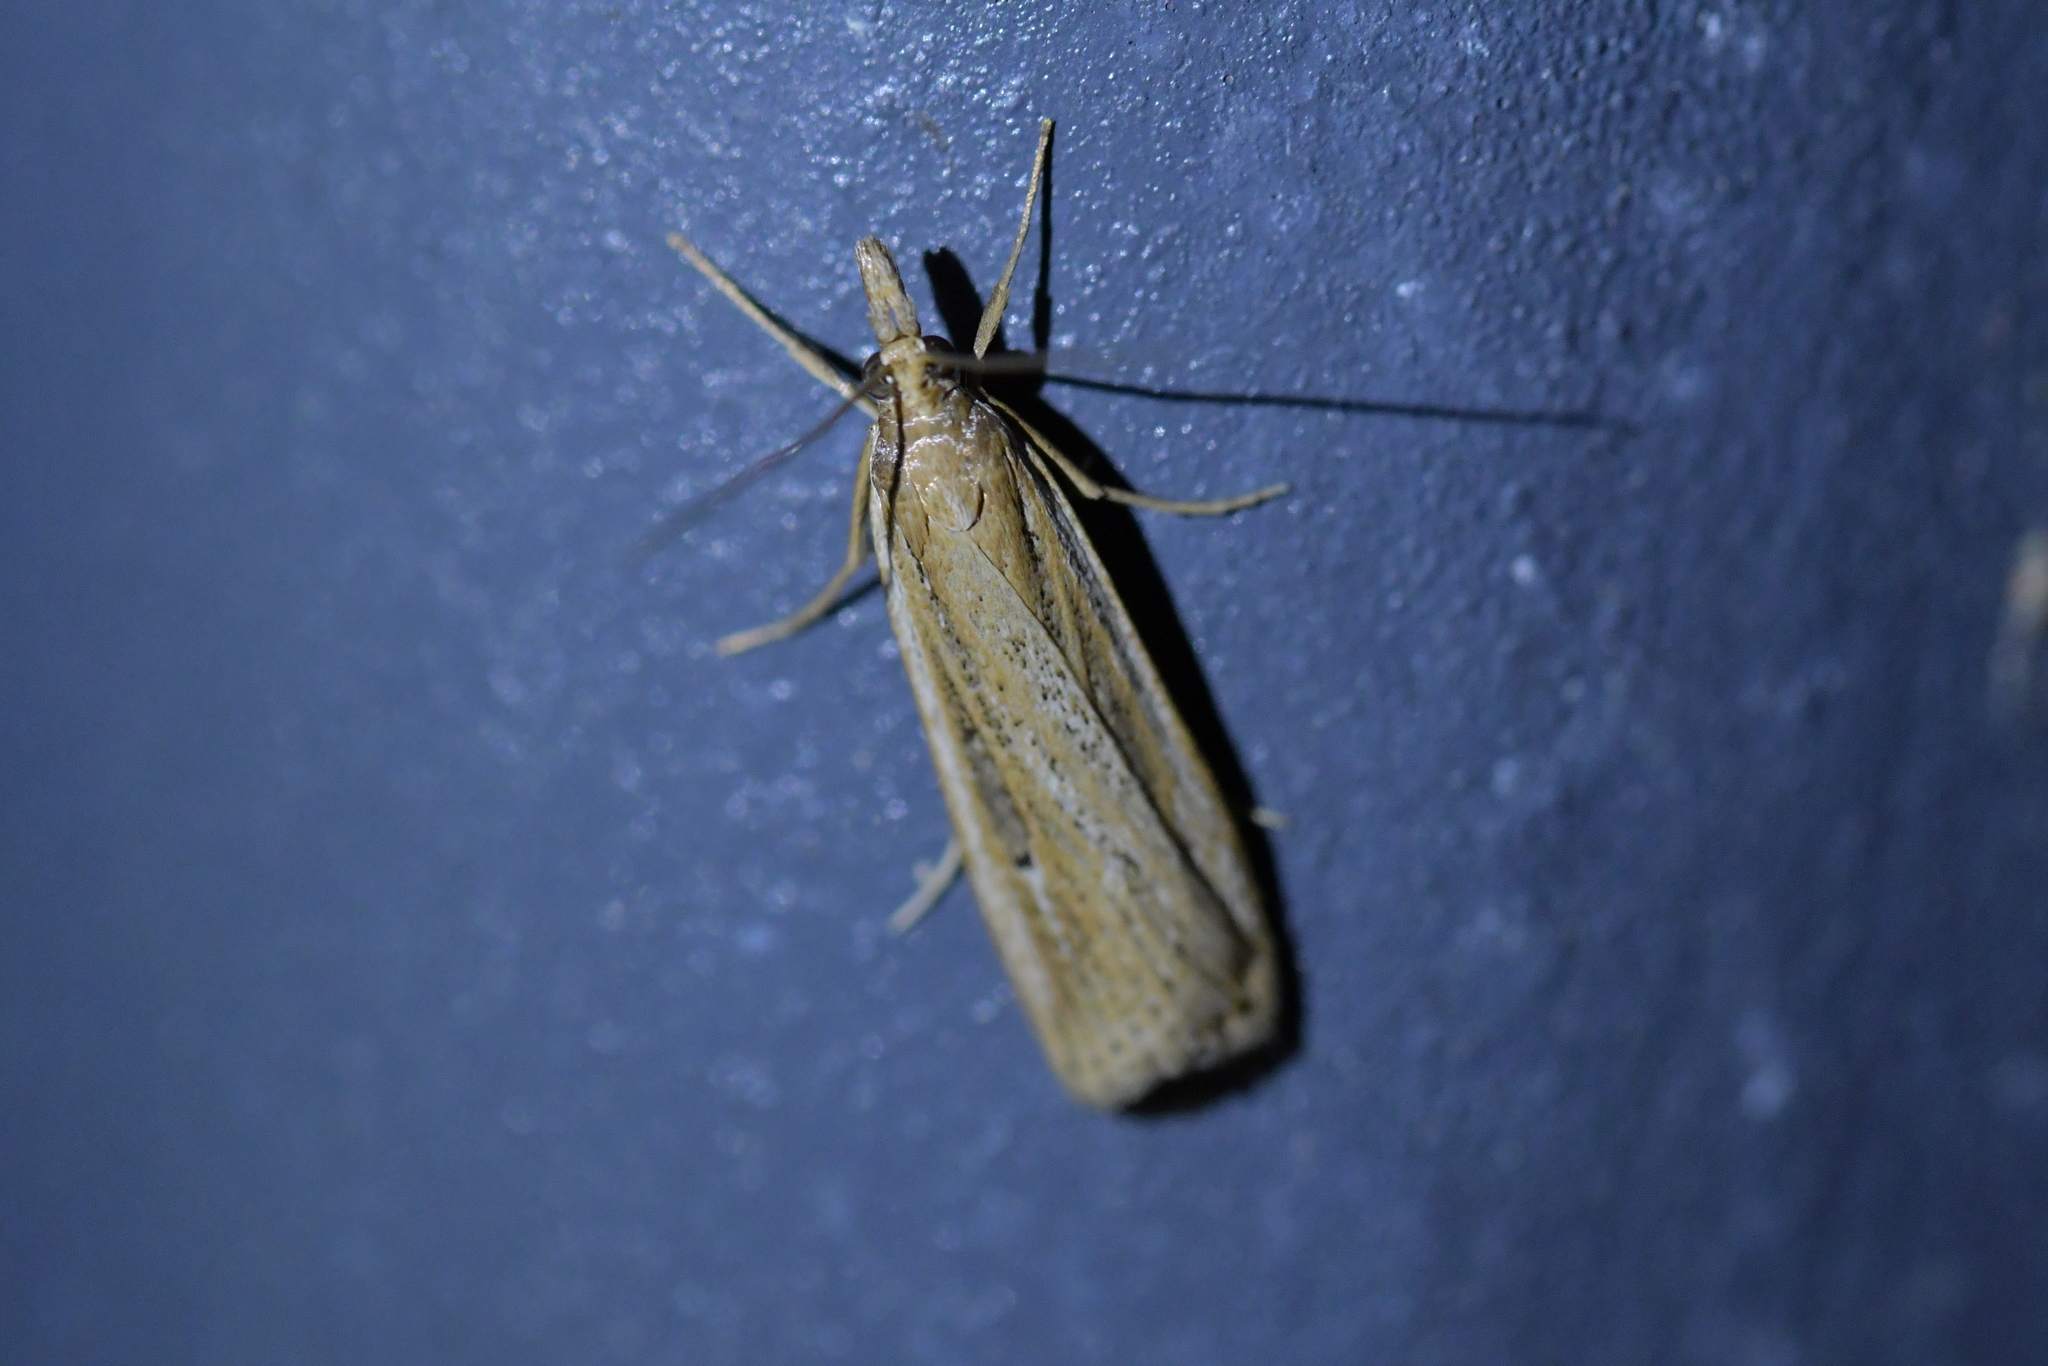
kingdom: Animalia
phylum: Arthropoda
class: Insecta
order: Lepidoptera
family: Crambidae
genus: Eudonia
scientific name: Eudonia sabulosella
